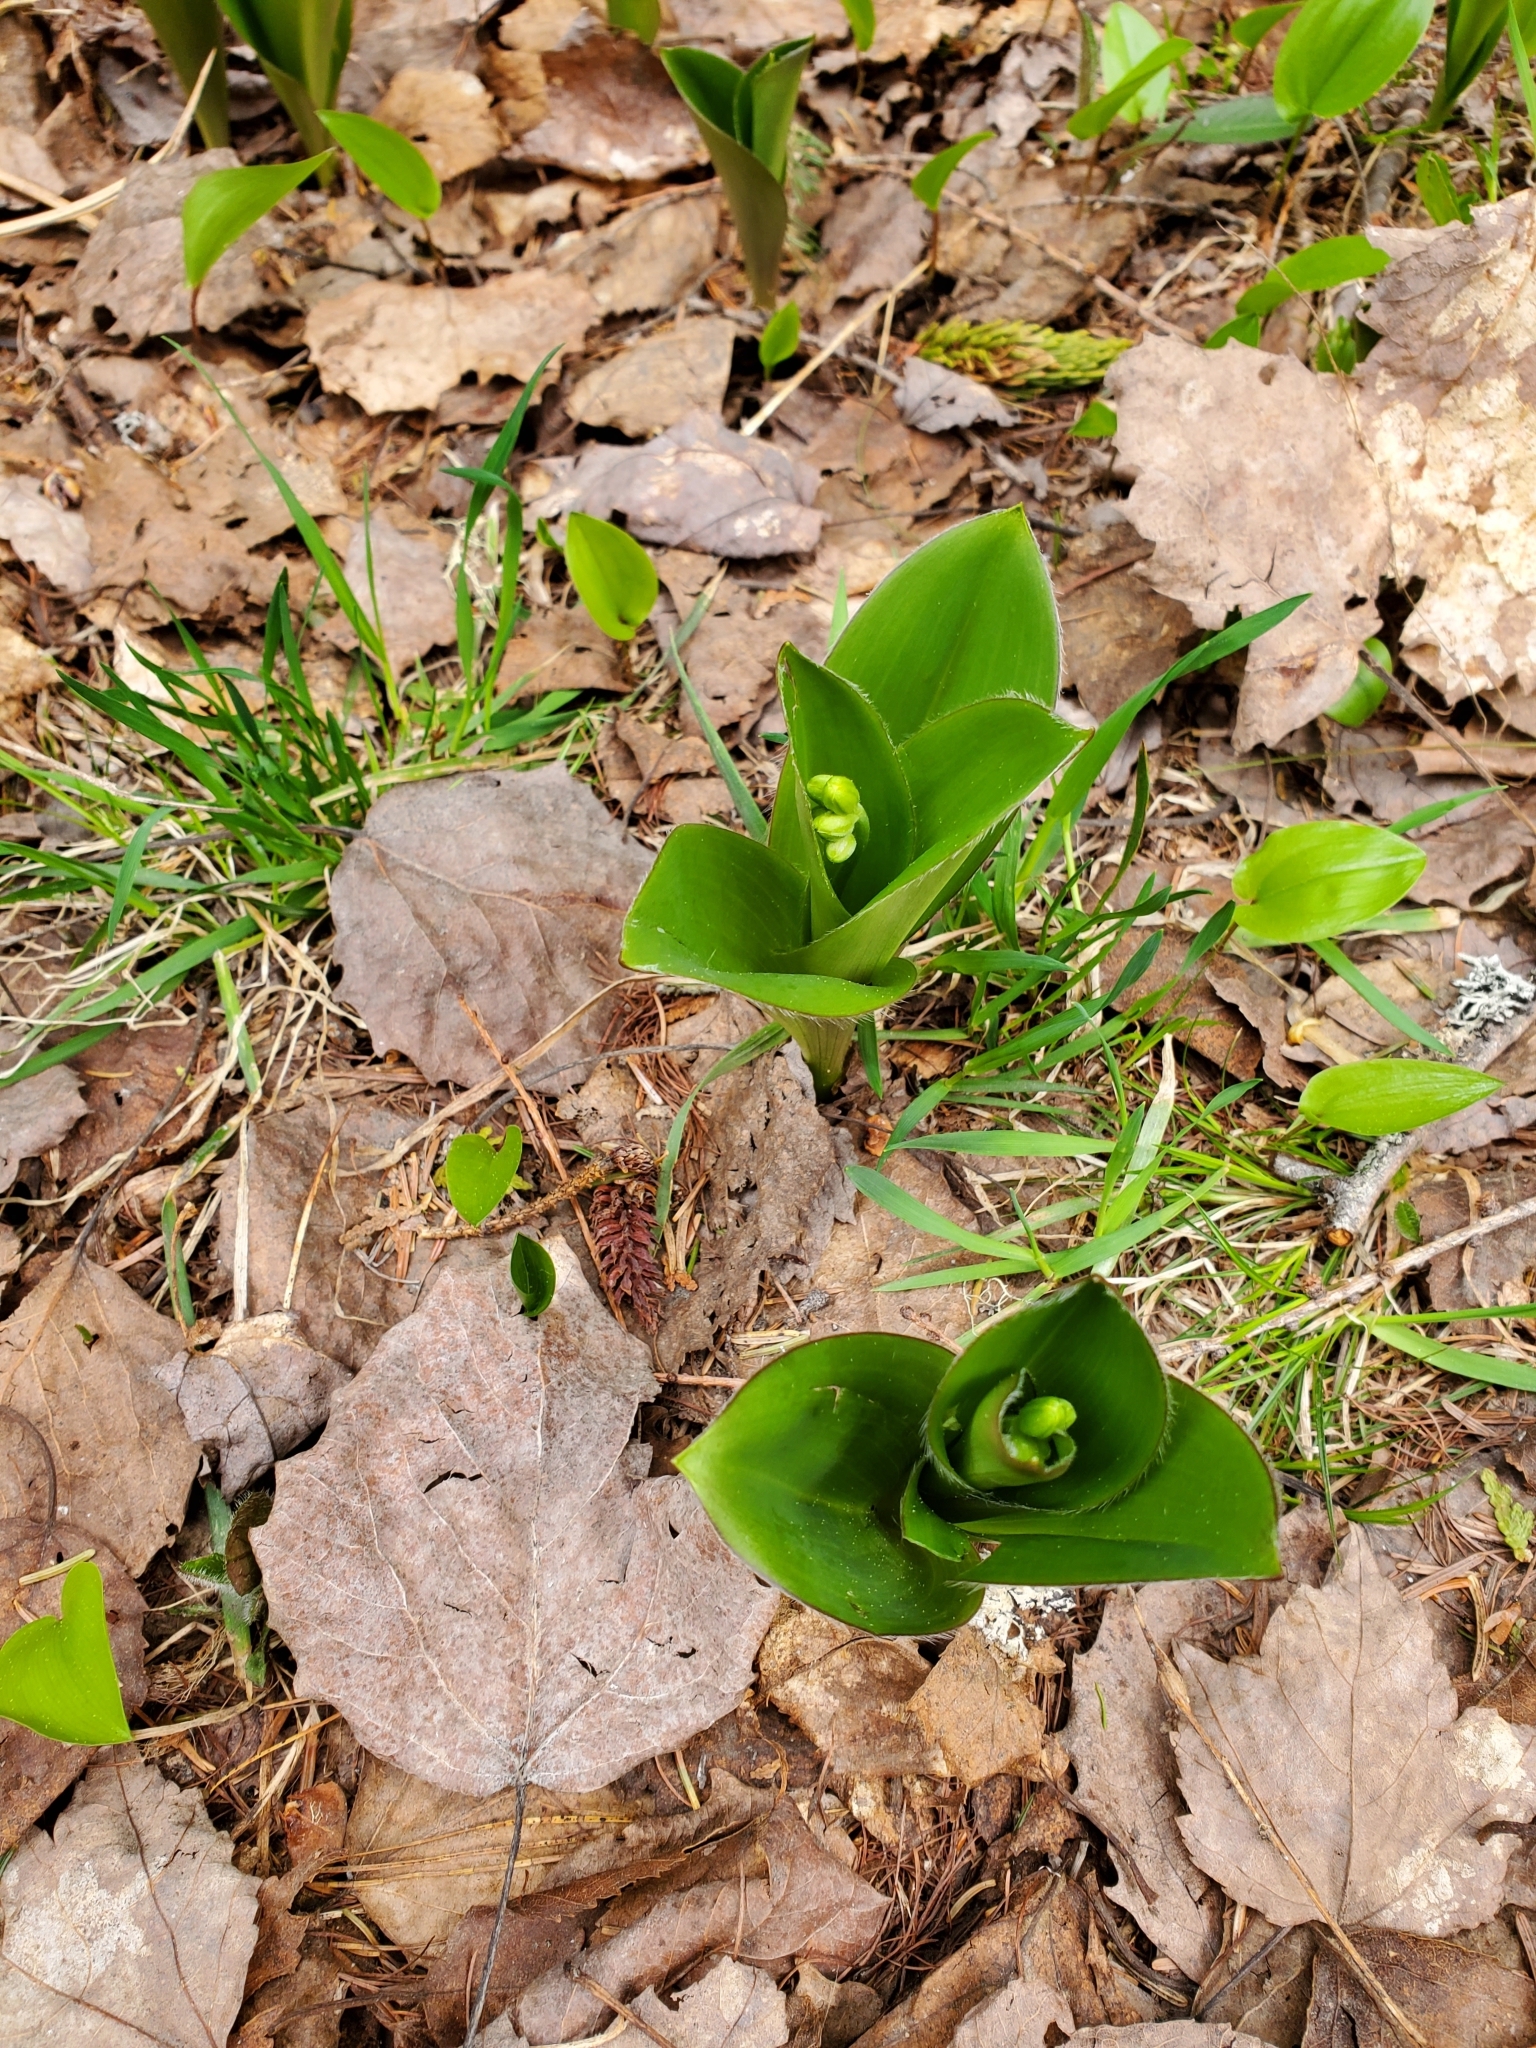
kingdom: Plantae
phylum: Tracheophyta
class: Liliopsida
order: Liliales
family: Liliaceae
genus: Clintonia
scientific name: Clintonia borealis
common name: Yellow clintonia
